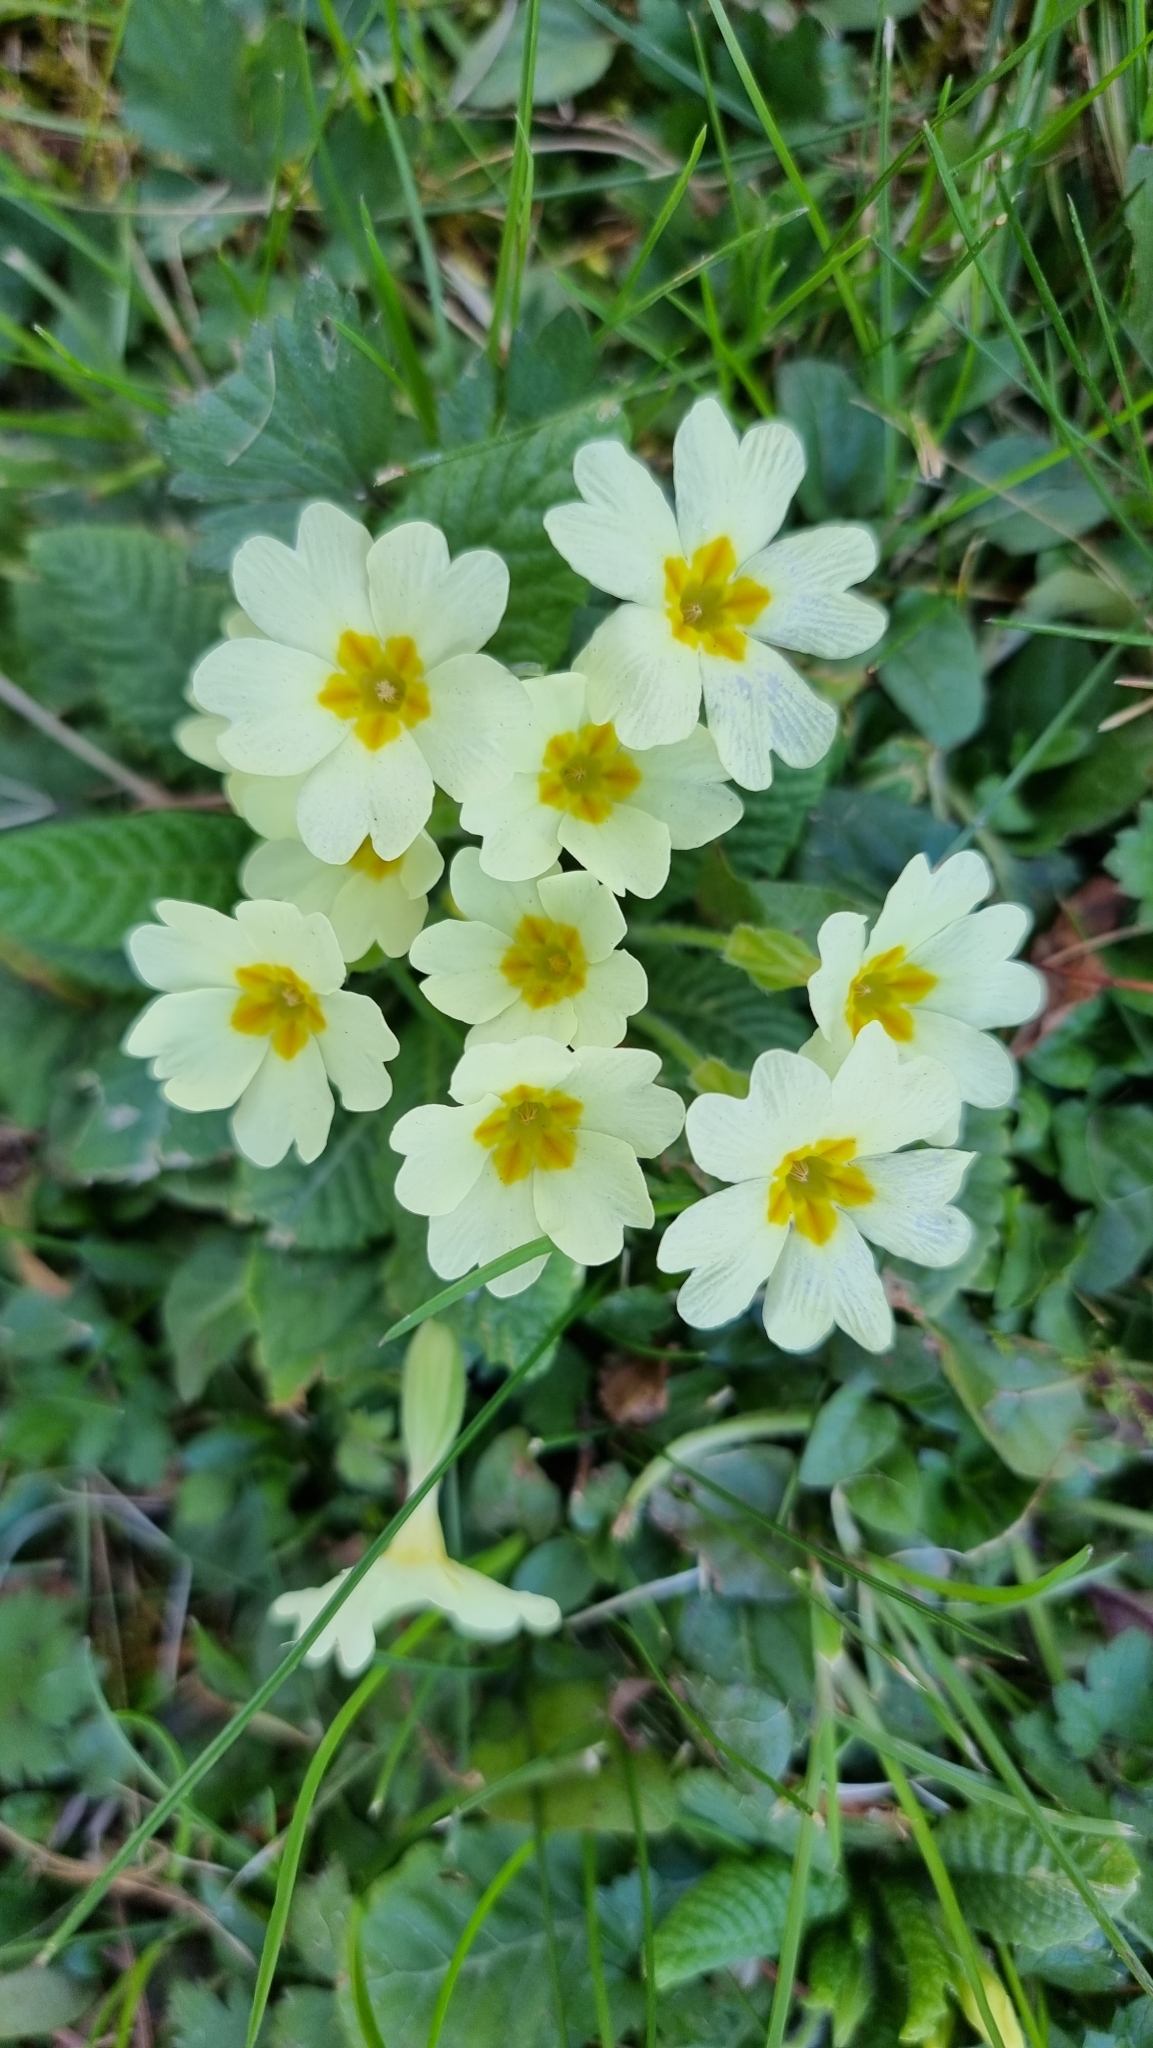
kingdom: Plantae
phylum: Tracheophyta
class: Magnoliopsida
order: Ericales
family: Primulaceae
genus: Primula
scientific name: Primula vulgaris
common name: Primrose
